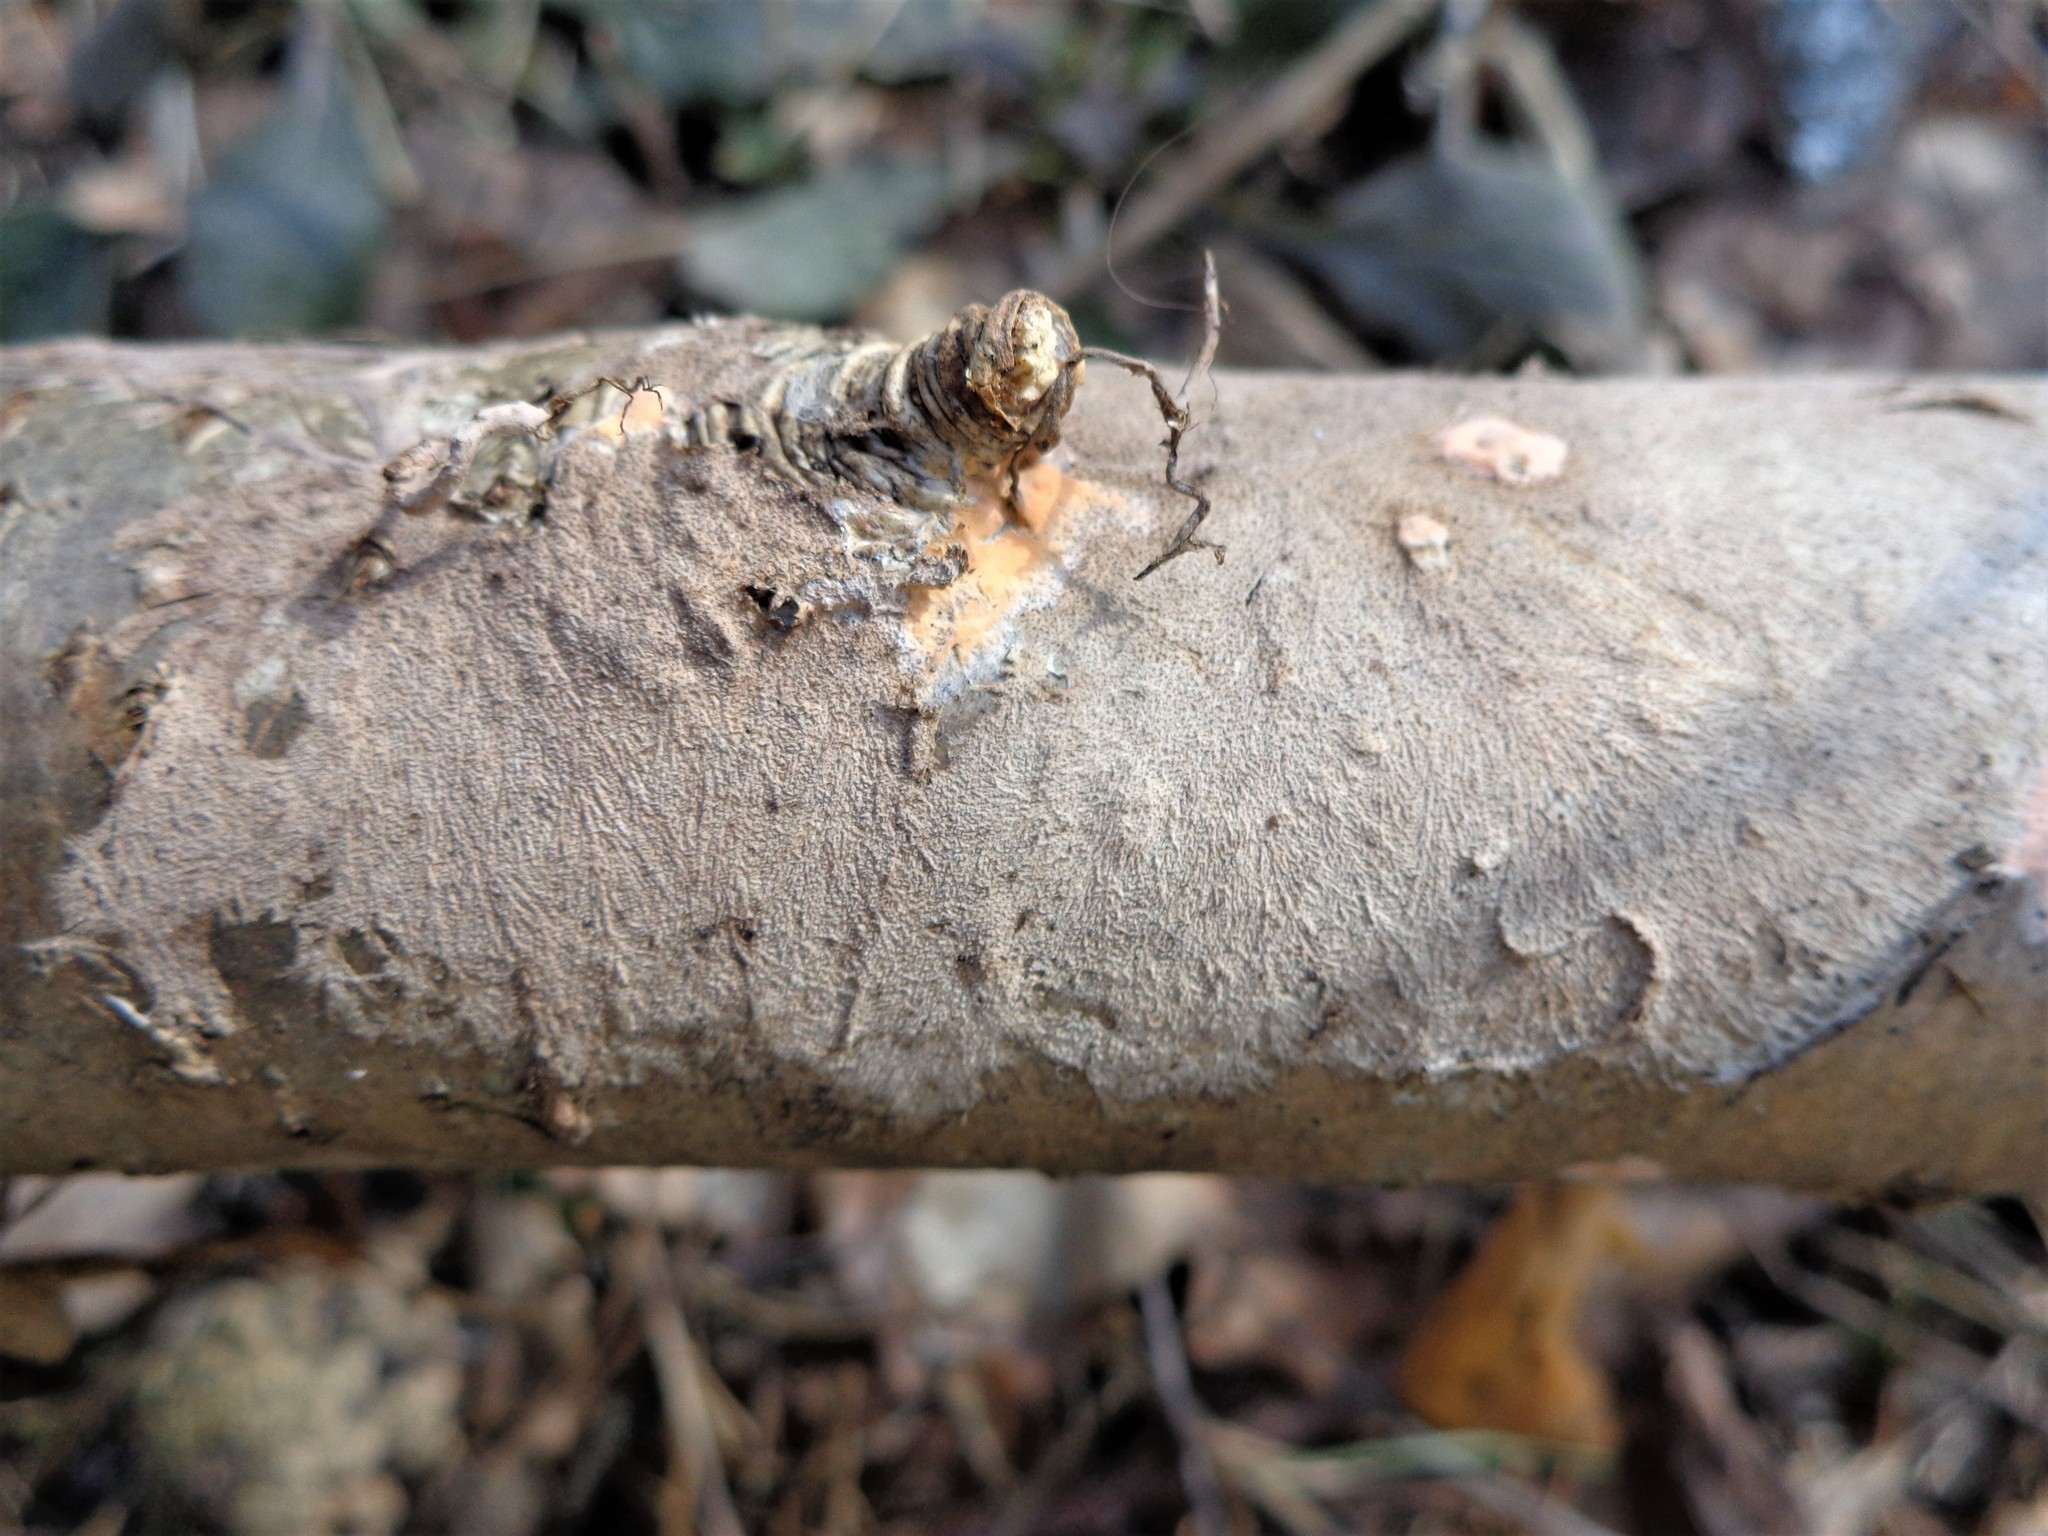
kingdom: Fungi
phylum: Basidiomycota
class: Agaricomycetes
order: Polyporales
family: Steccherinaceae
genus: Steccherinum
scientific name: Steccherinum fimbriatum
